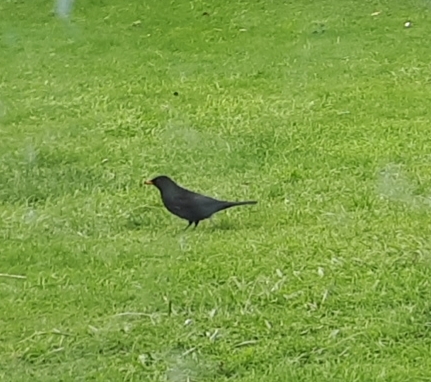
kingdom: Animalia
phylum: Chordata
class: Aves
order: Passeriformes
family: Turdidae
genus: Turdus
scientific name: Turdus merula
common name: Common blackbird
